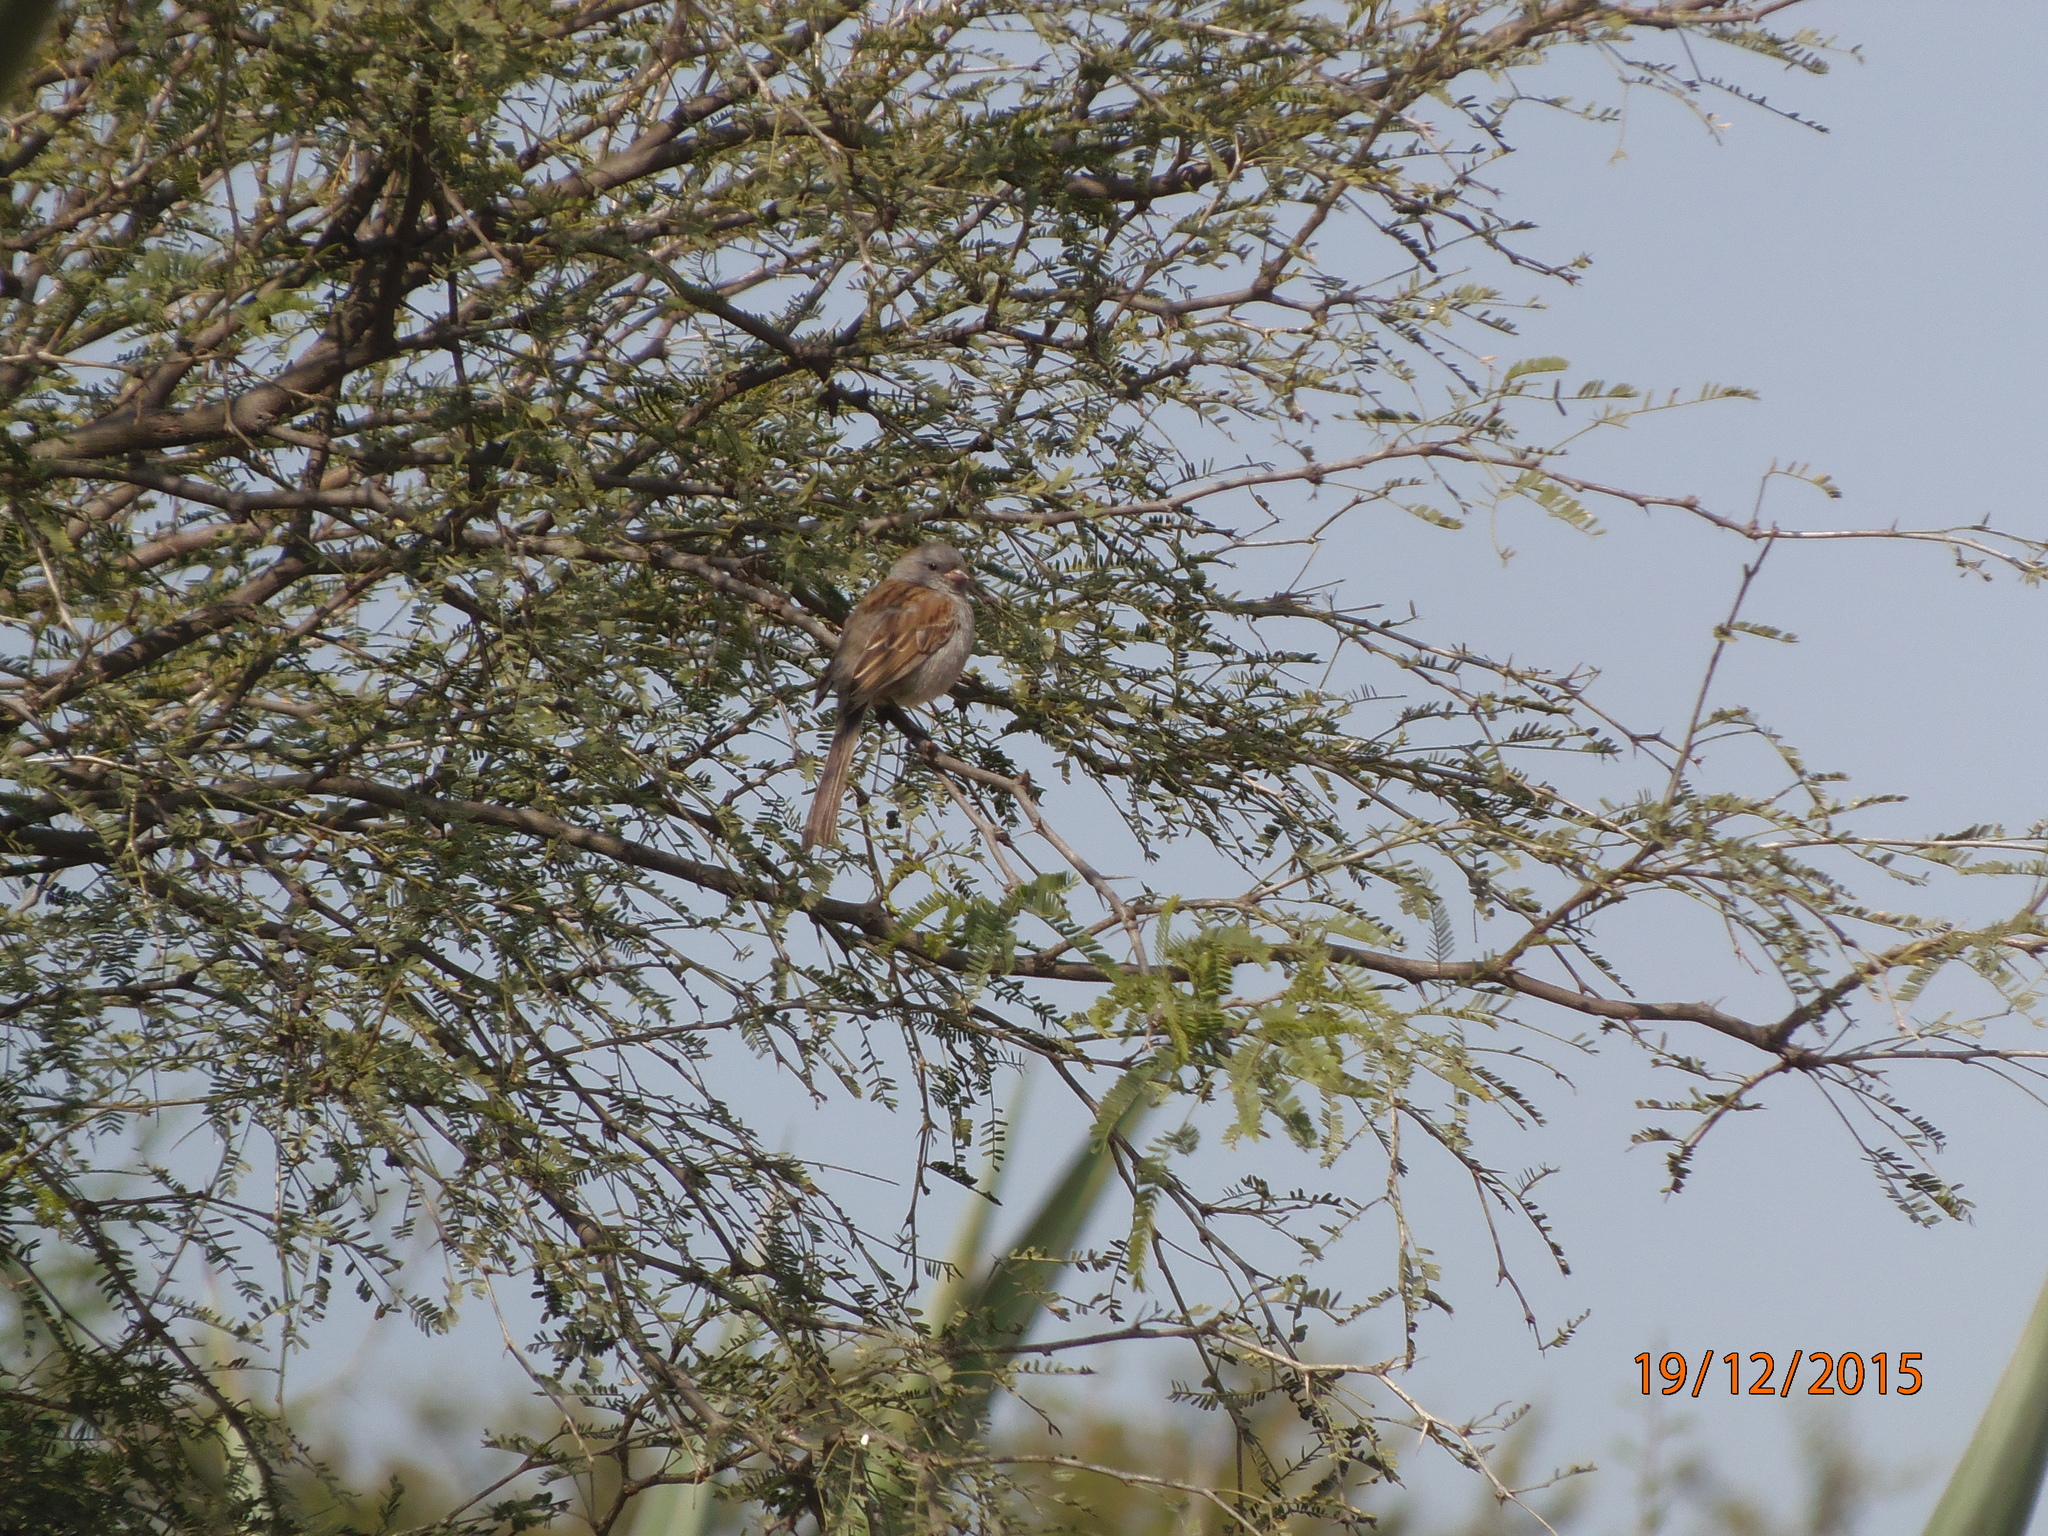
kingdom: Animalia
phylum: Chordata
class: Aves
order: Passeriformes
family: Passerellidae
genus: Spizella
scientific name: Spizella atrogularis
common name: Black-chinned sparrow
